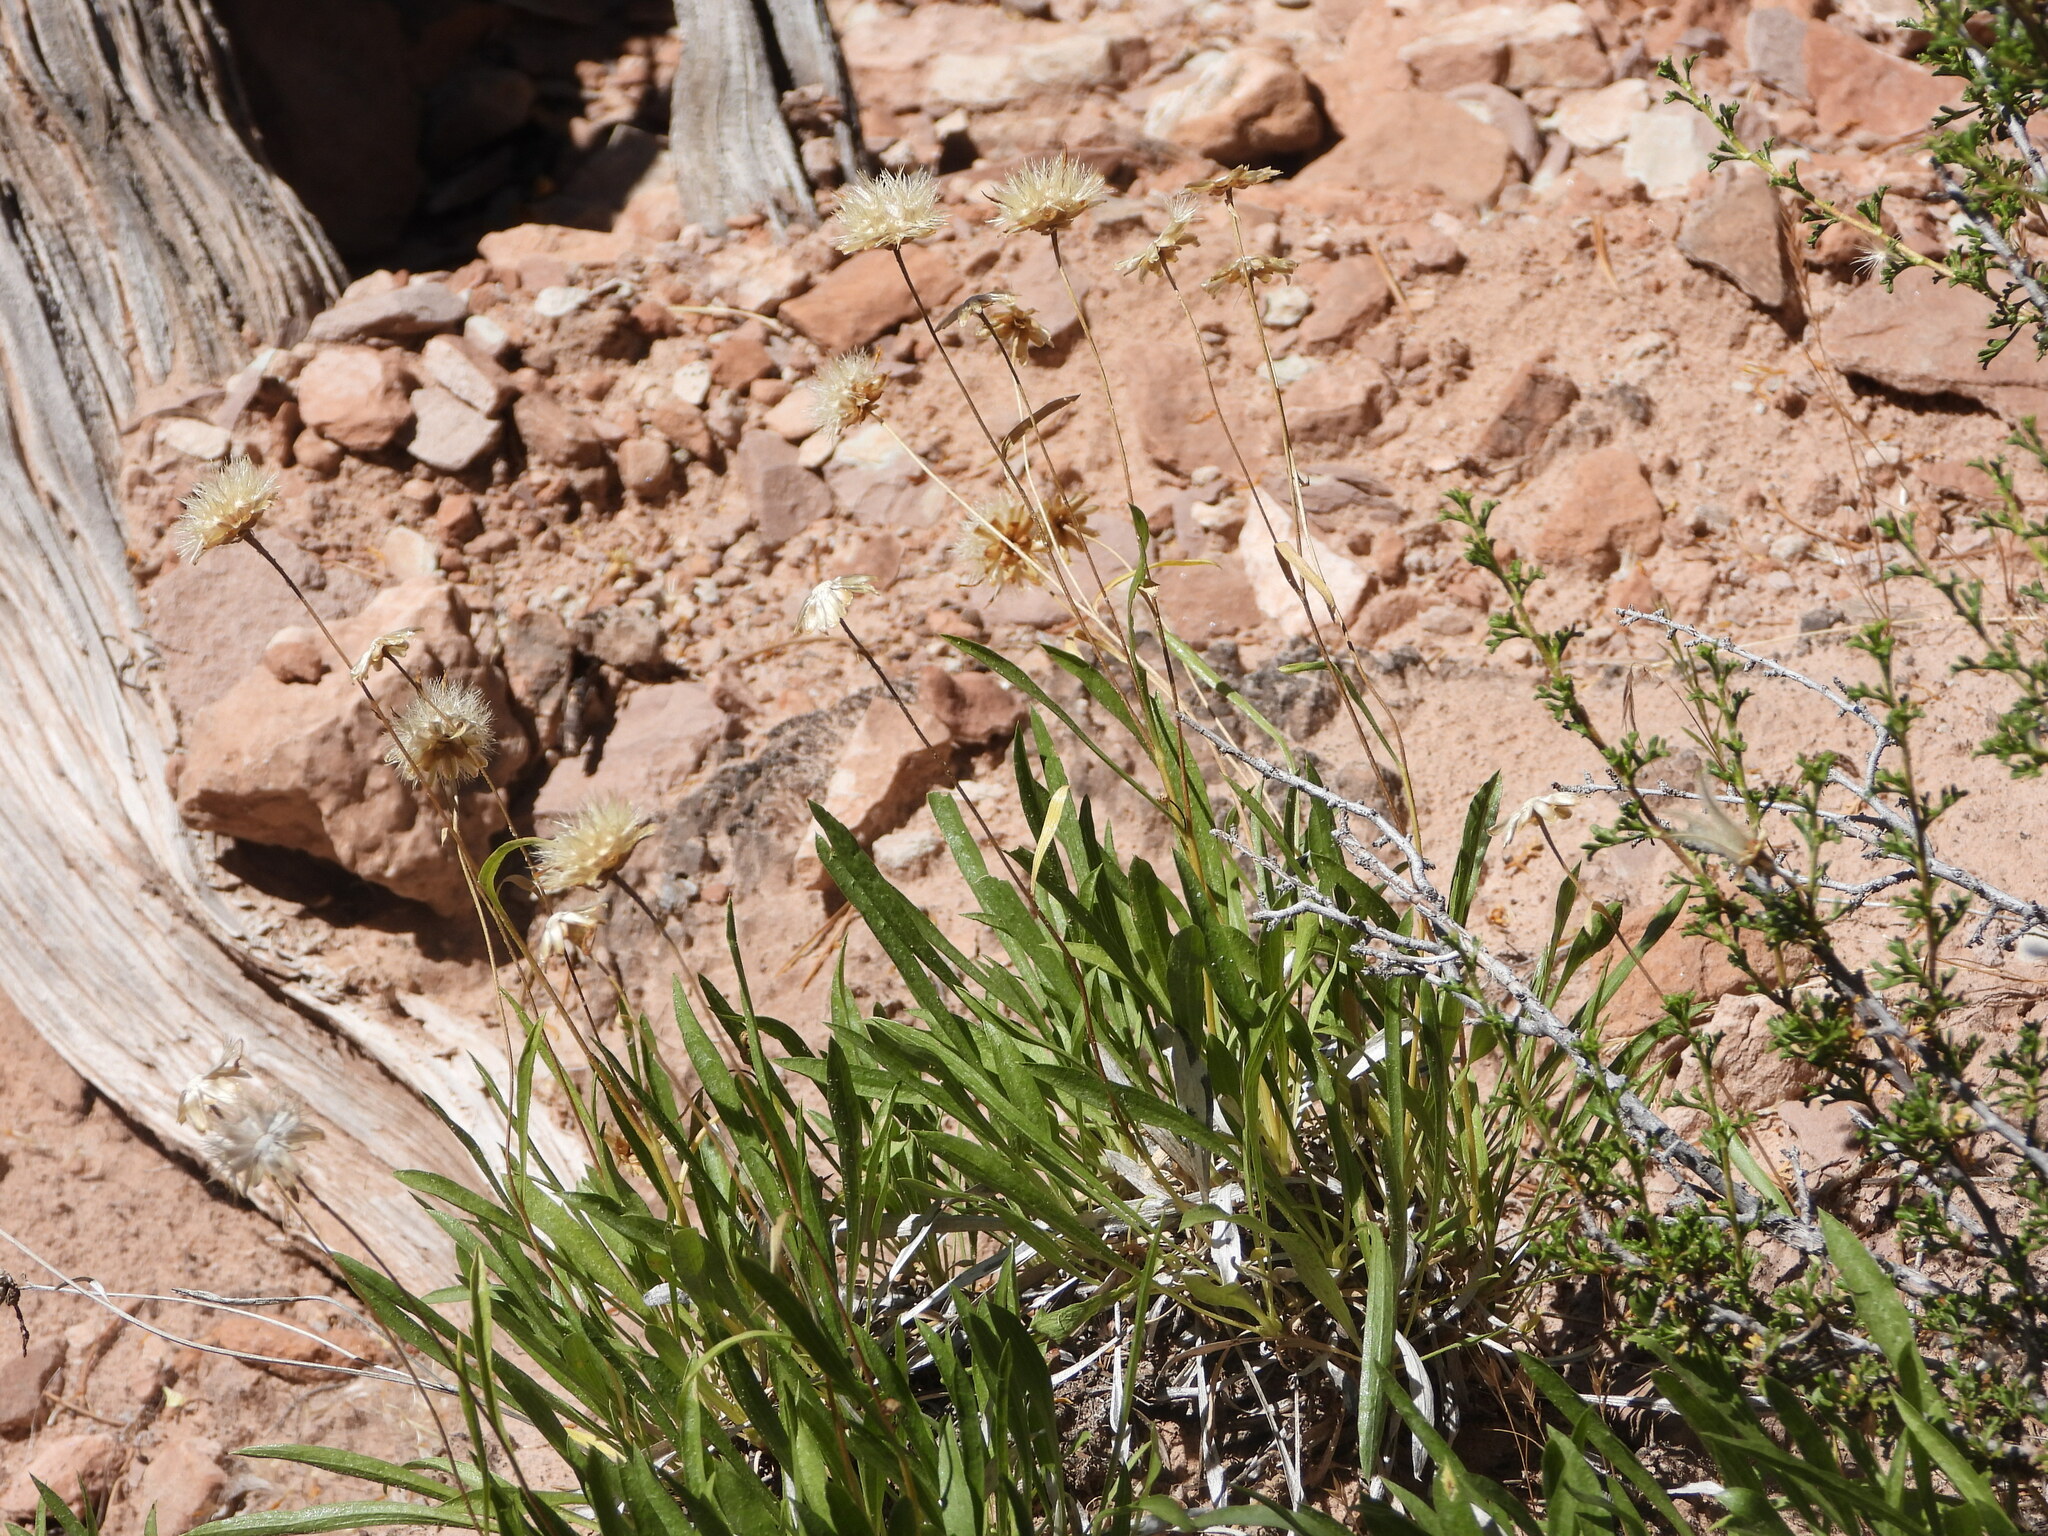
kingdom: Plantae
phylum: Tracheophyta
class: Magnoliopsida
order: Asterales
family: Asteraceae
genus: Stenotus
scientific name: Stenotus armerioides
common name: Thrifty goldenweed
